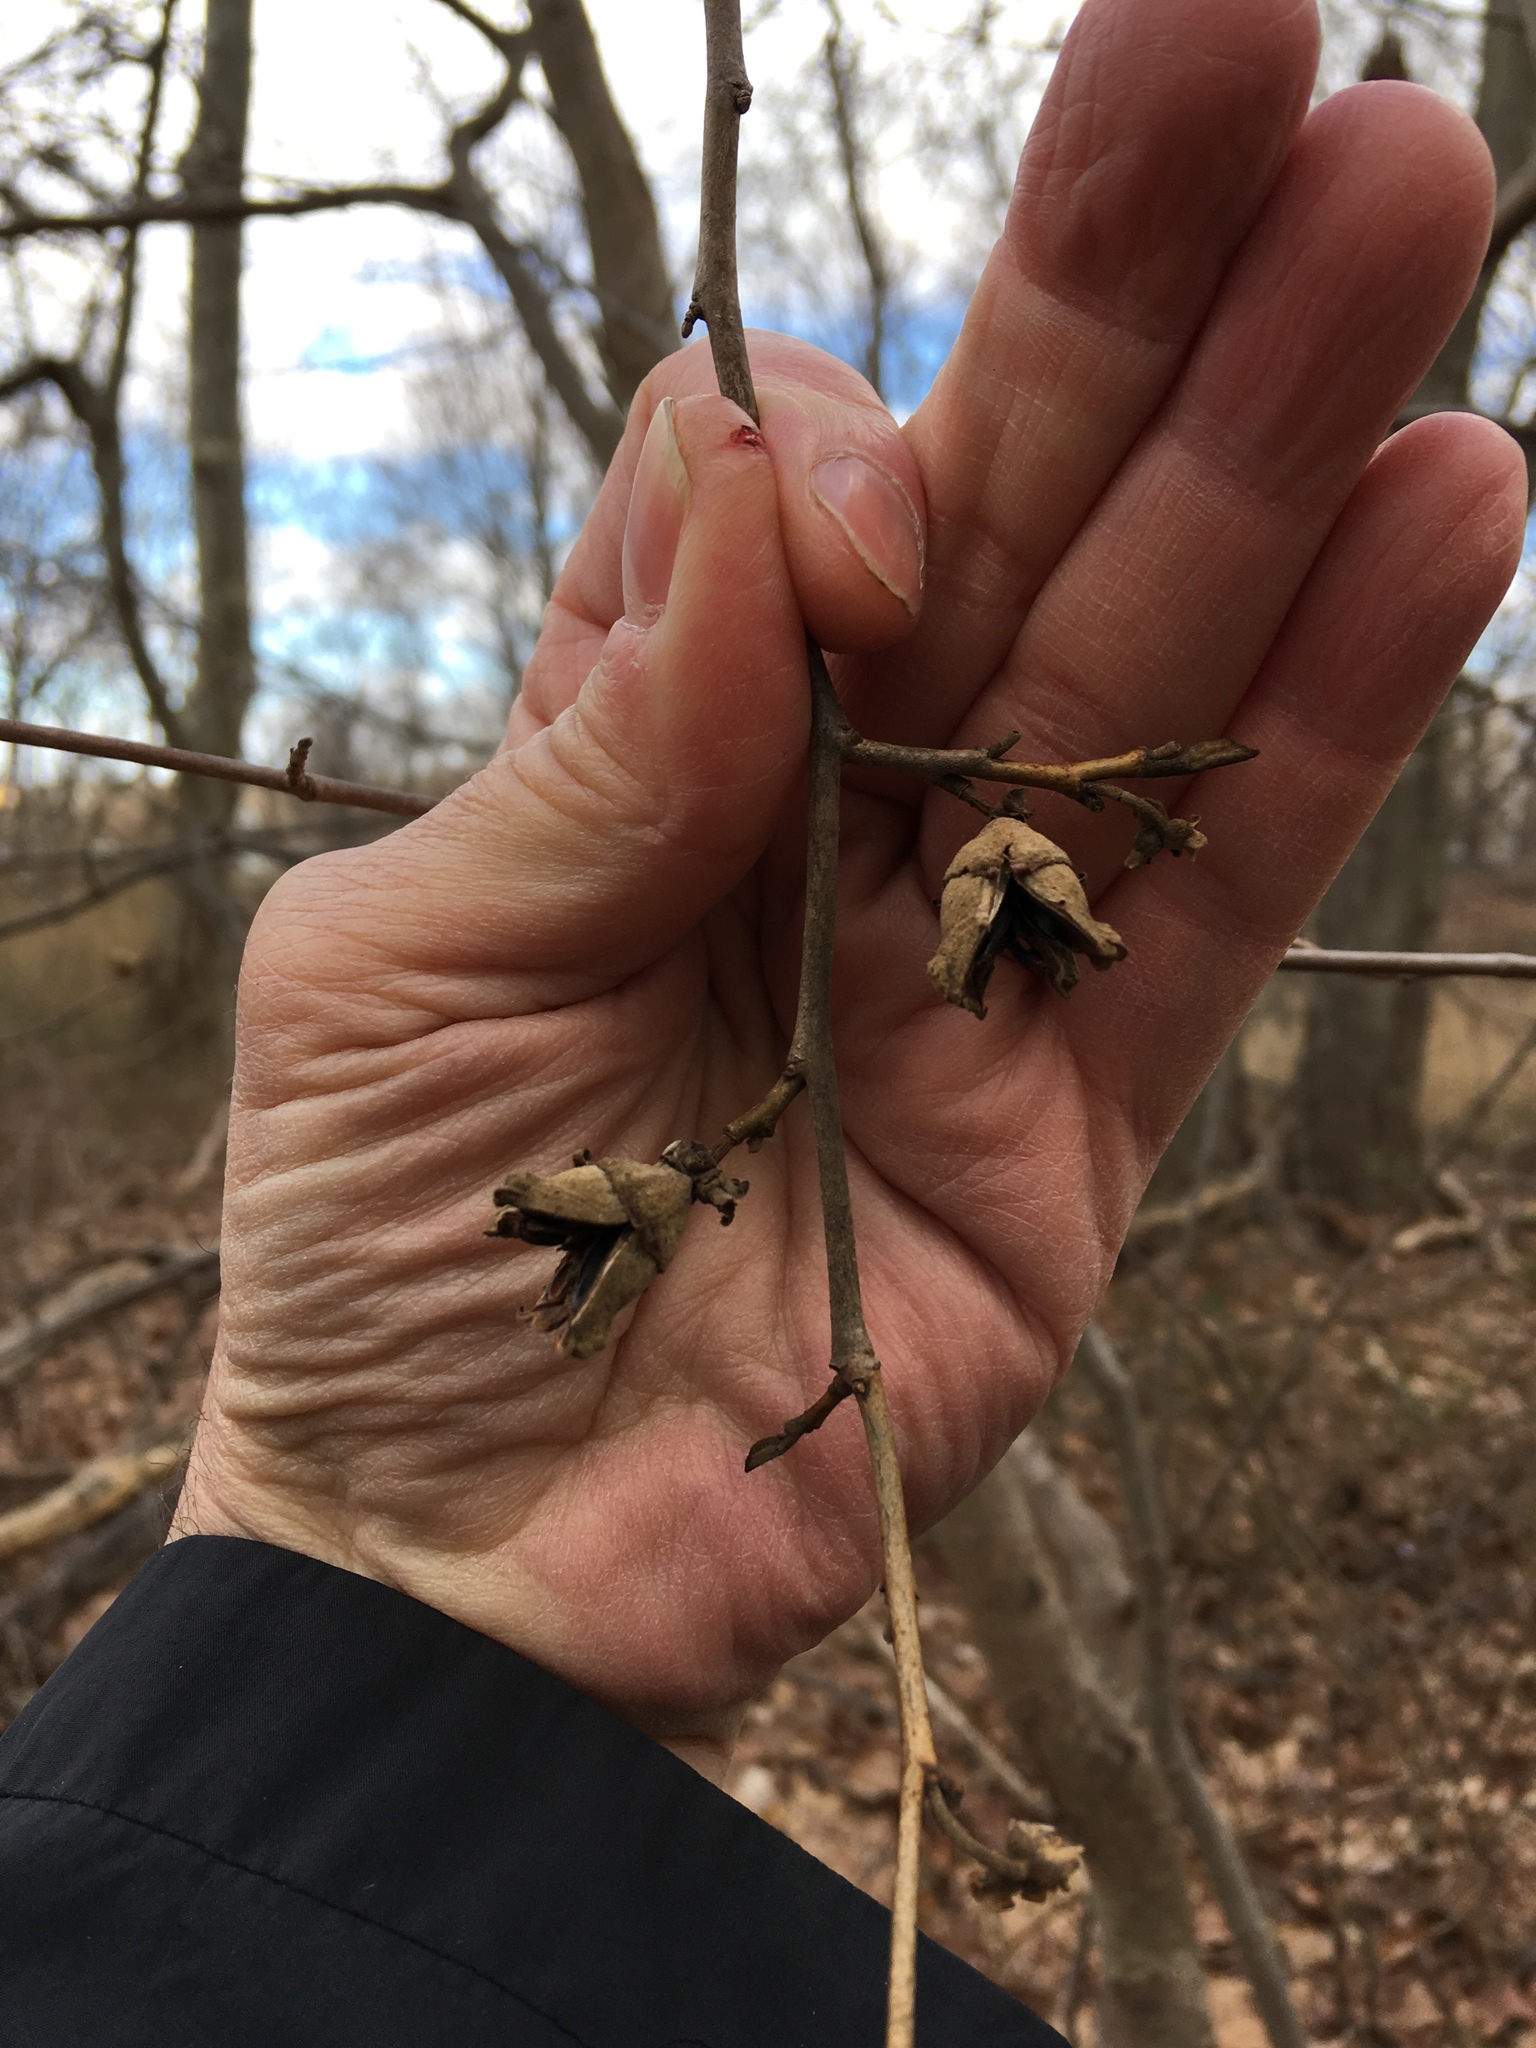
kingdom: Plantae
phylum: Tracheophyta
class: Magnoliopsida
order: Saxifragales
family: Hamamelidaceae
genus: Hamamelis
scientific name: Hamamelis virginiana
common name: Witch-hazel
